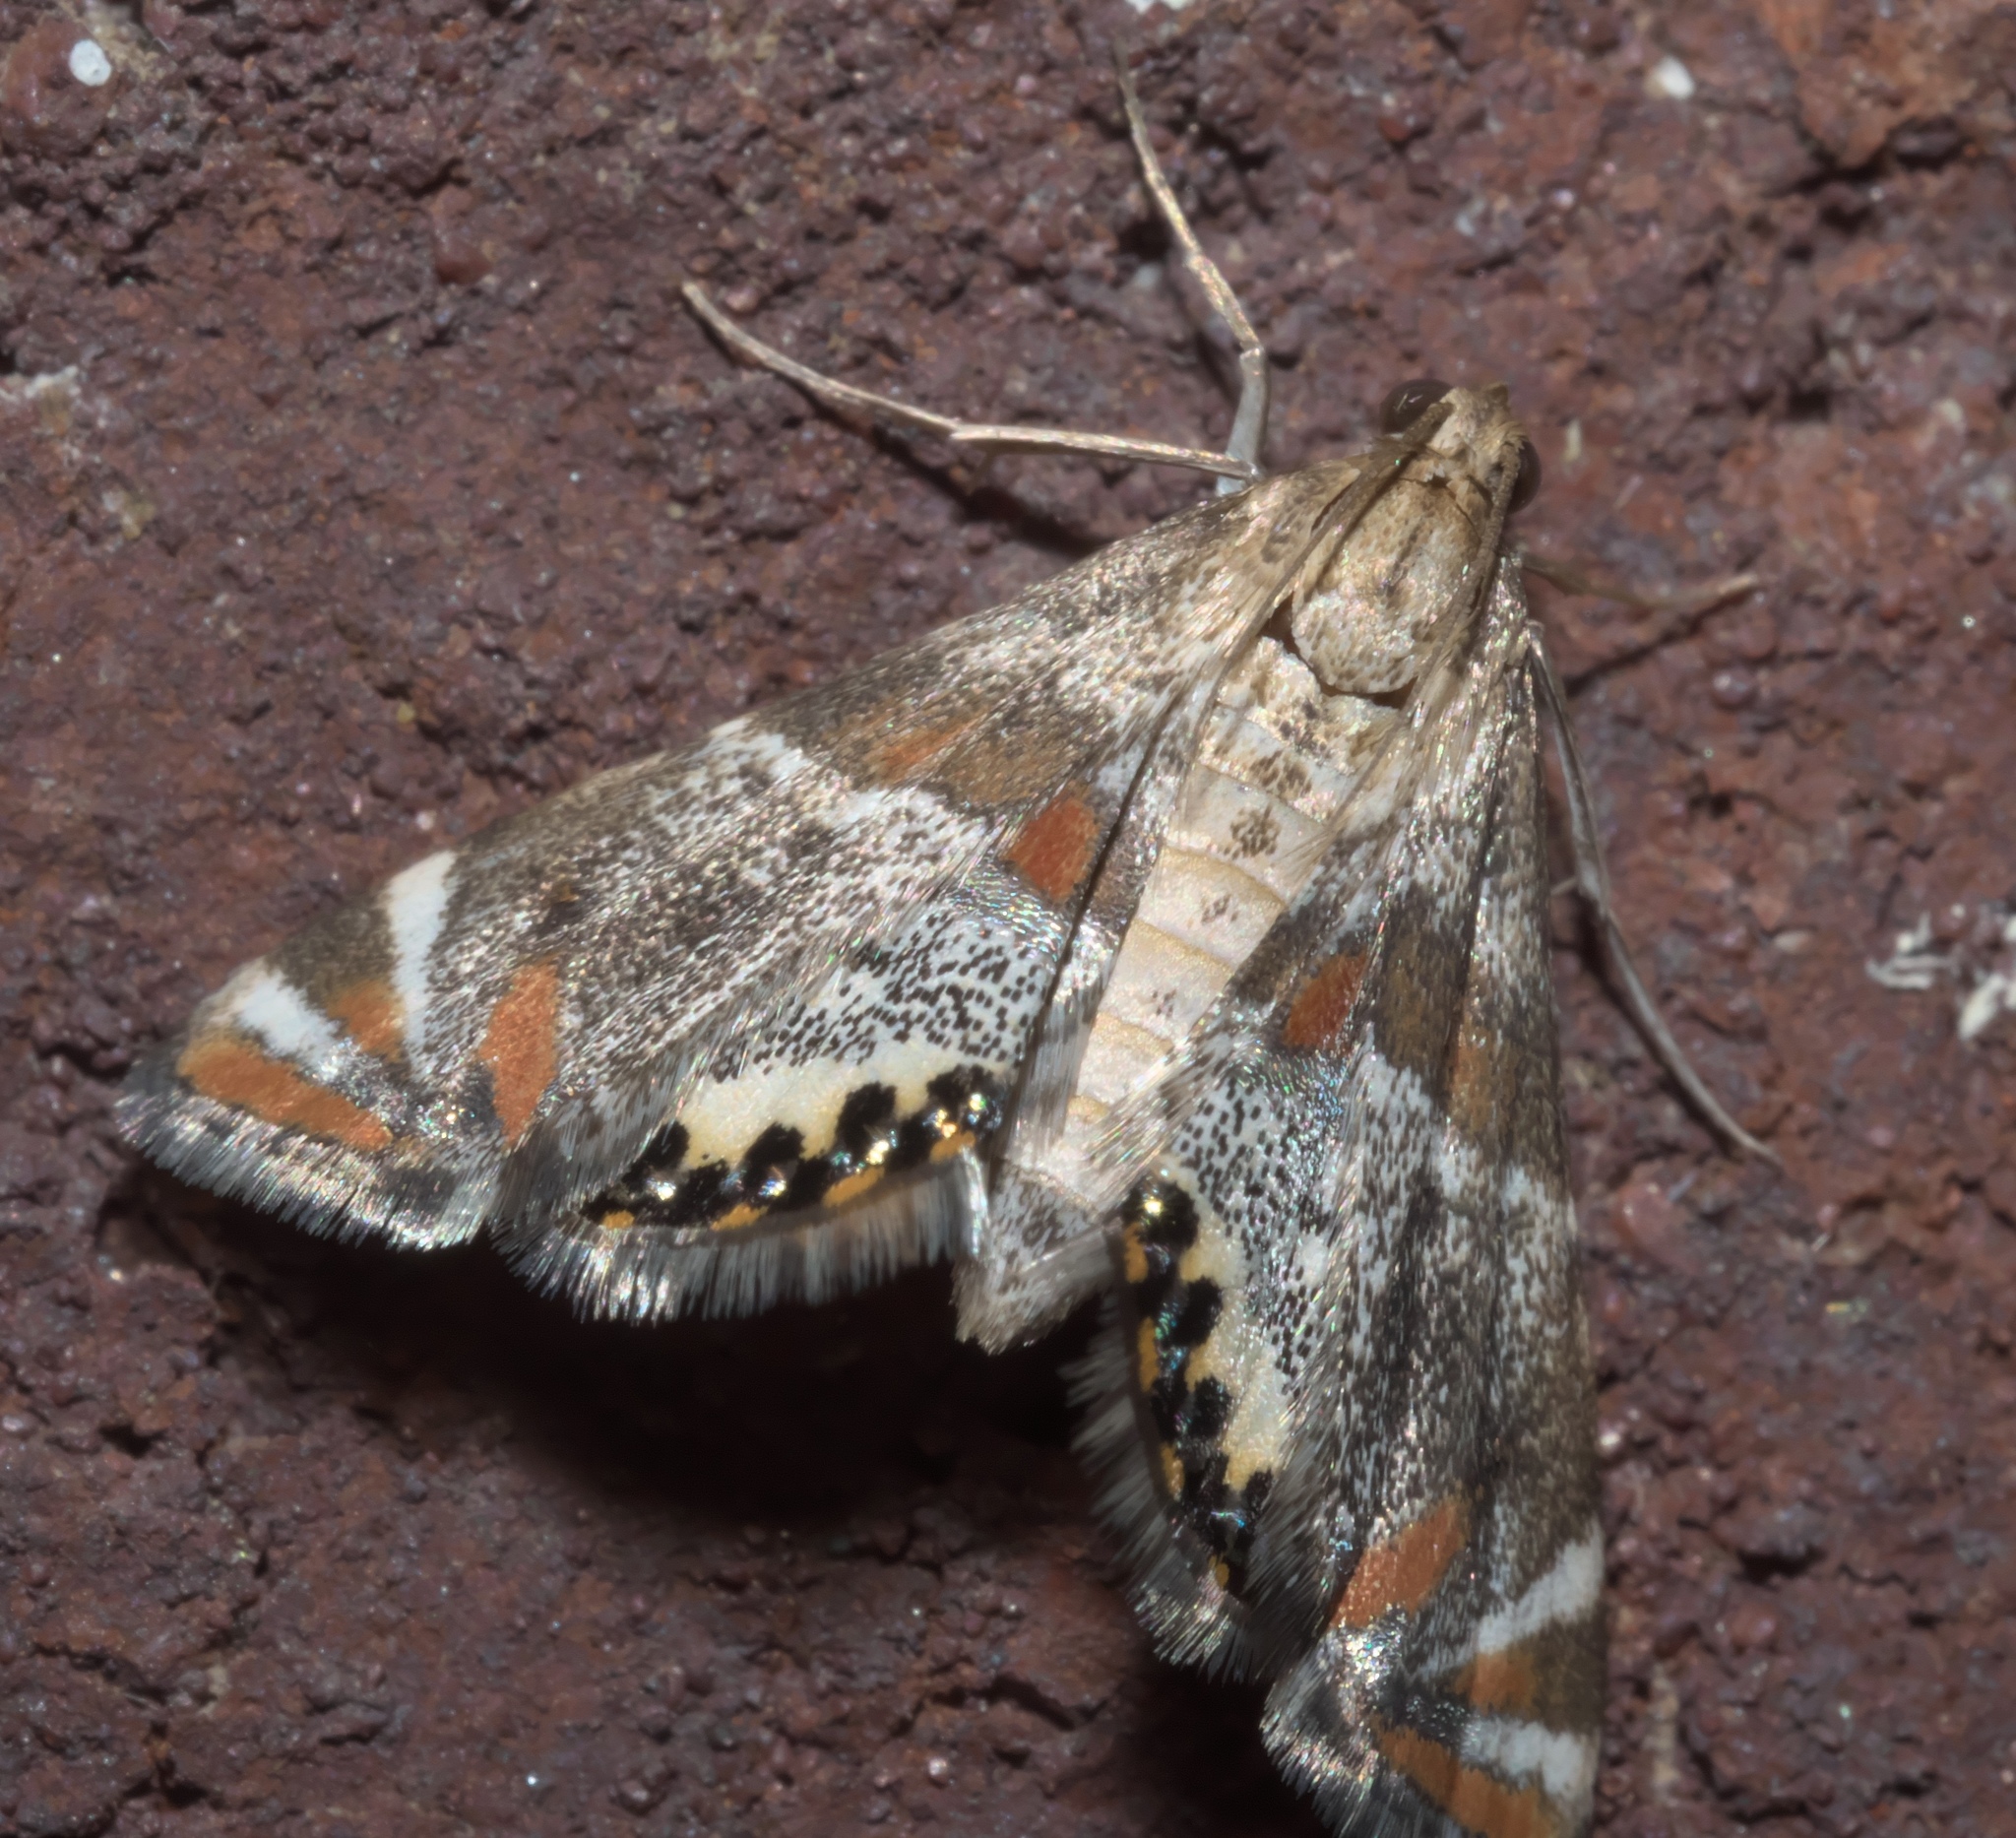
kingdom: Animalia
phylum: Arthropoda
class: Insecta
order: Lepidoptera
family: Crambidae
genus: Petrophila
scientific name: Petrophila jaliscalis
